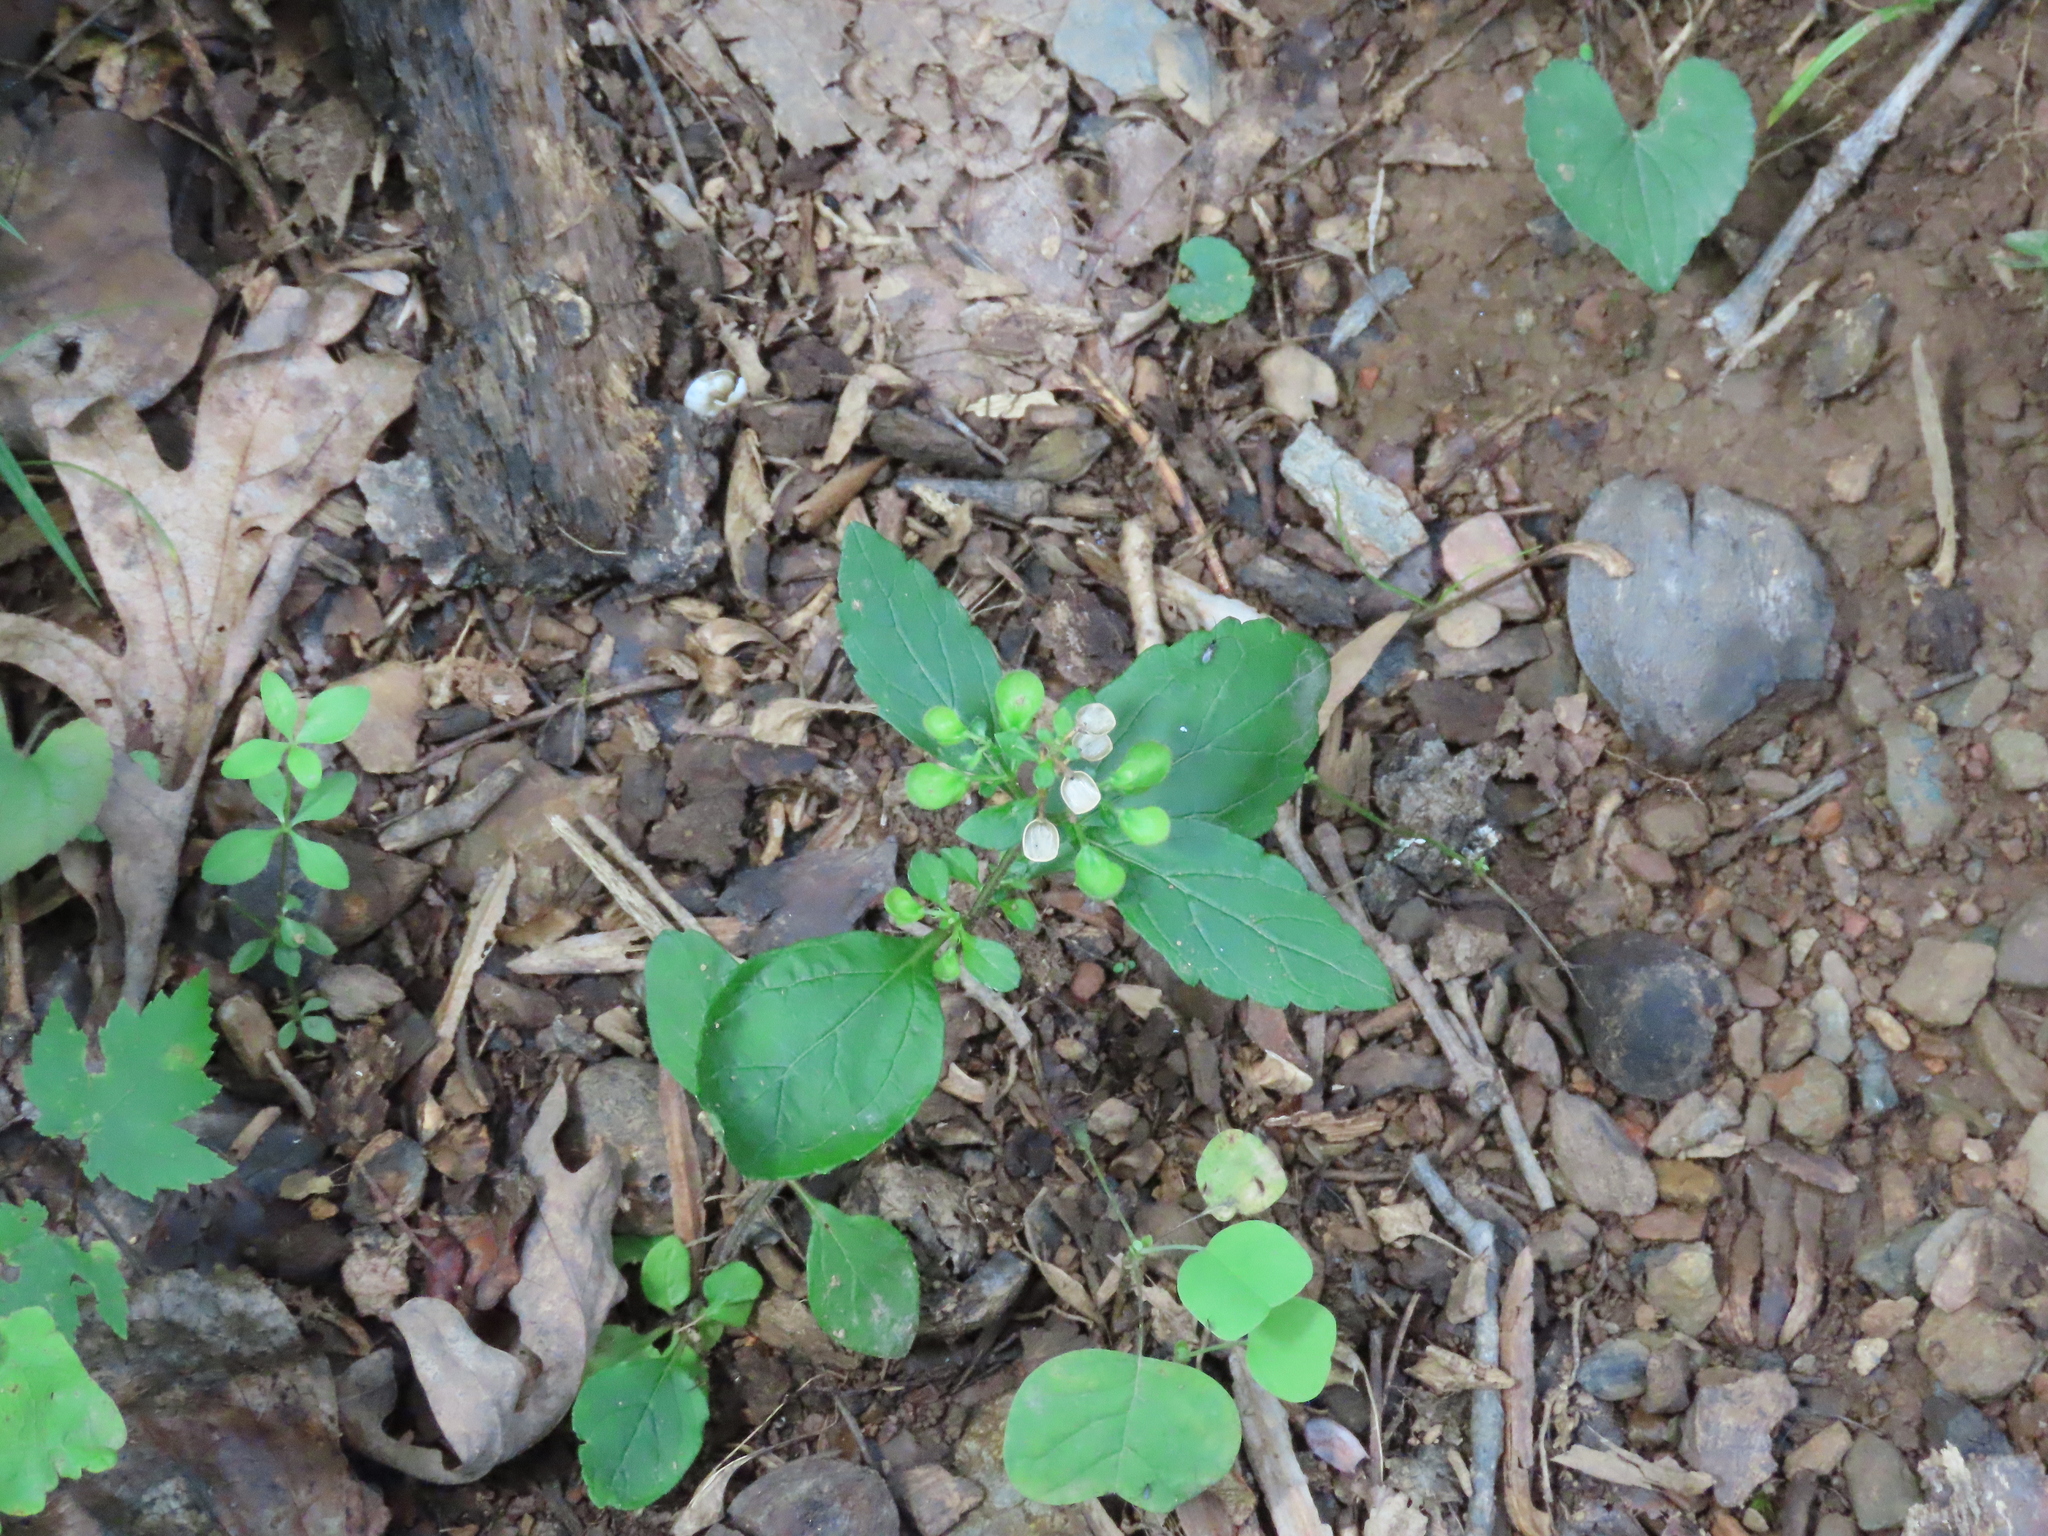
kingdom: Plantae
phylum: Tracheophyta
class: Magnoliopsida
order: Lamiales
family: Lamiaceae
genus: Scutellaria
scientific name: Scutellaria elliptica
